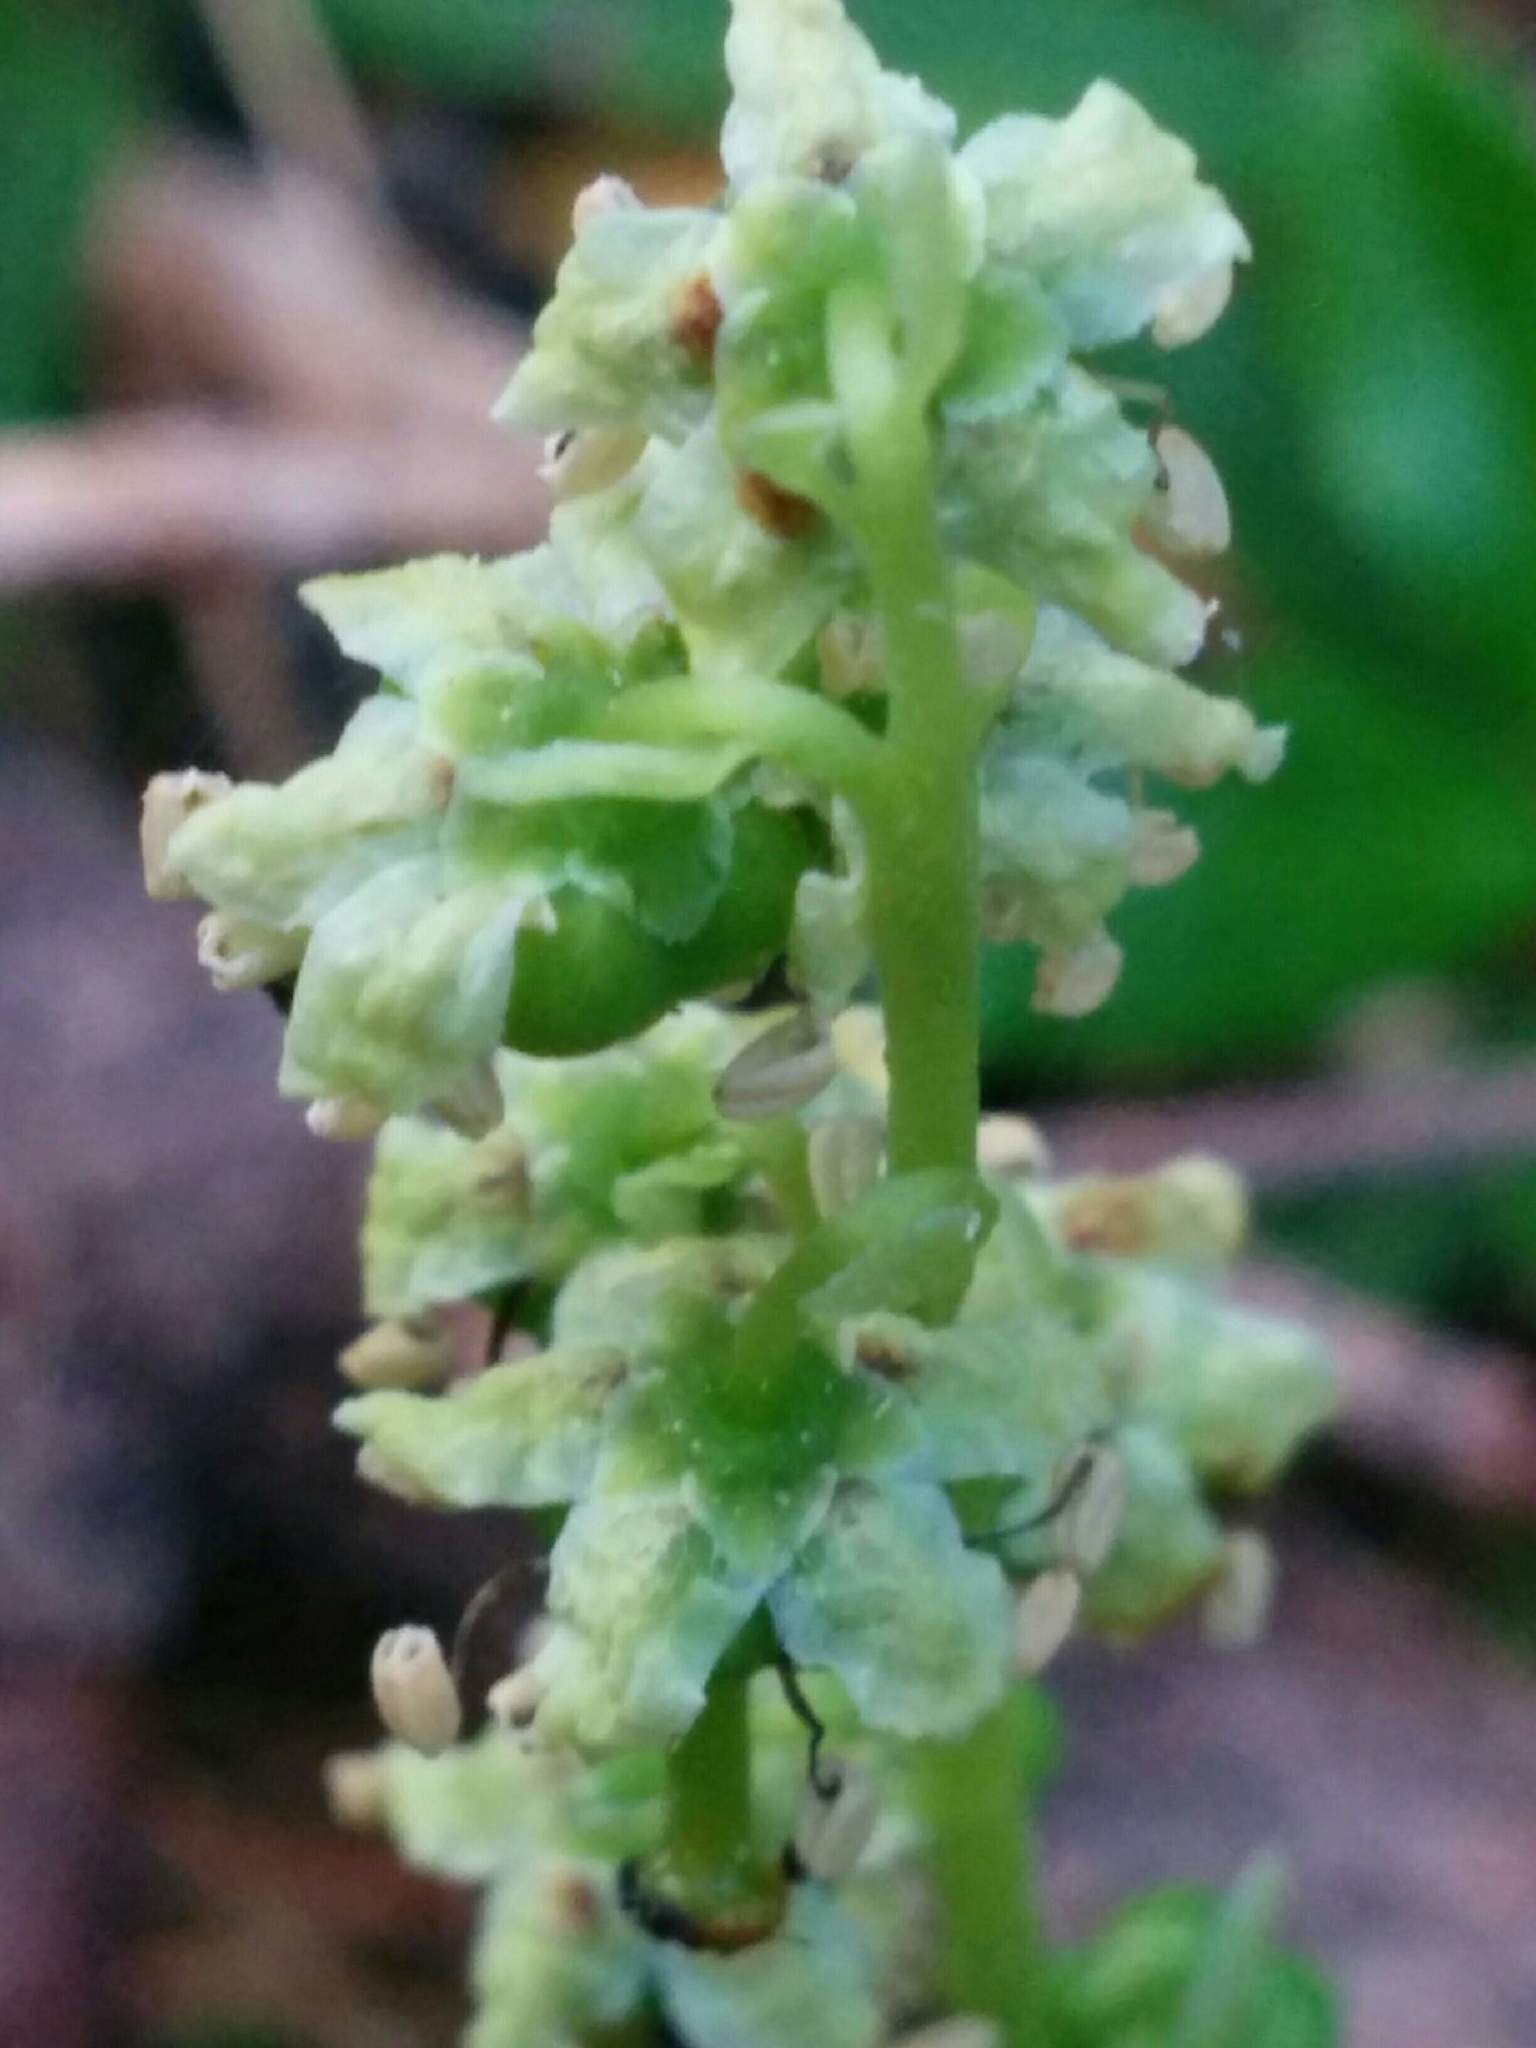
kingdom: Plantae
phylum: Tracheophyta
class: Magnoliopsida
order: Ericales
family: Ericaceae
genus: Orthilia
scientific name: Orthilia secunda
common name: One-sided orthilia
